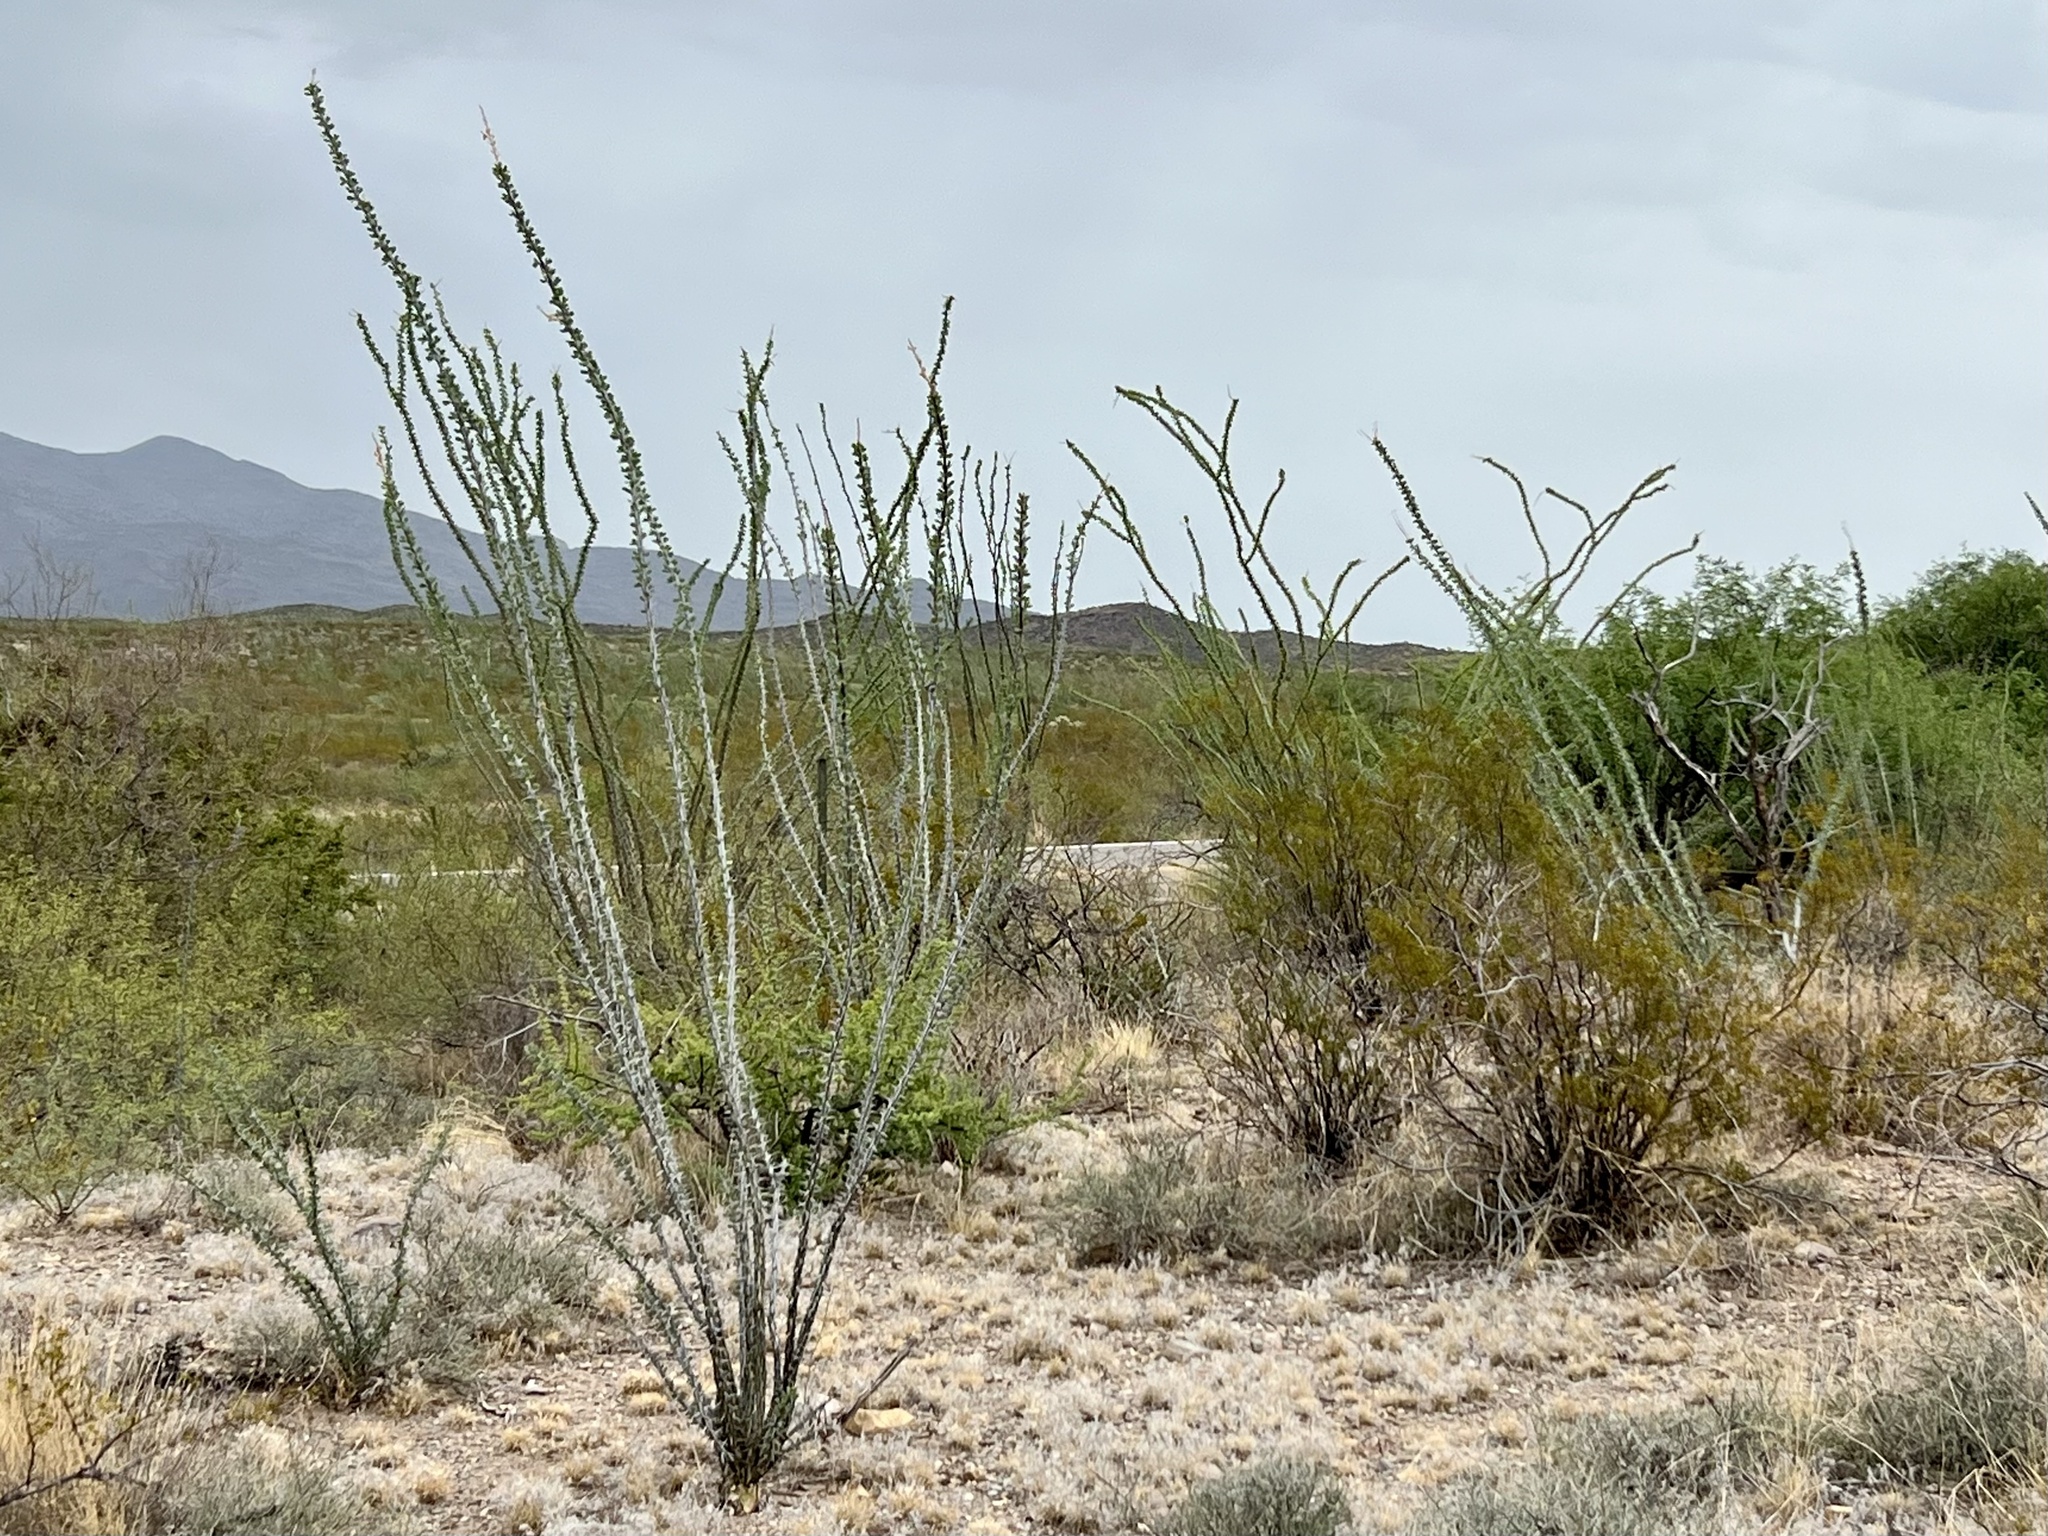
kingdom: Plantae
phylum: Tracheophyta
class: Magnoliopsida
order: Ericales
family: Fouquieriaceae
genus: Fouquieria
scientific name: Fouquieria splendens
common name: Vine-cactus
